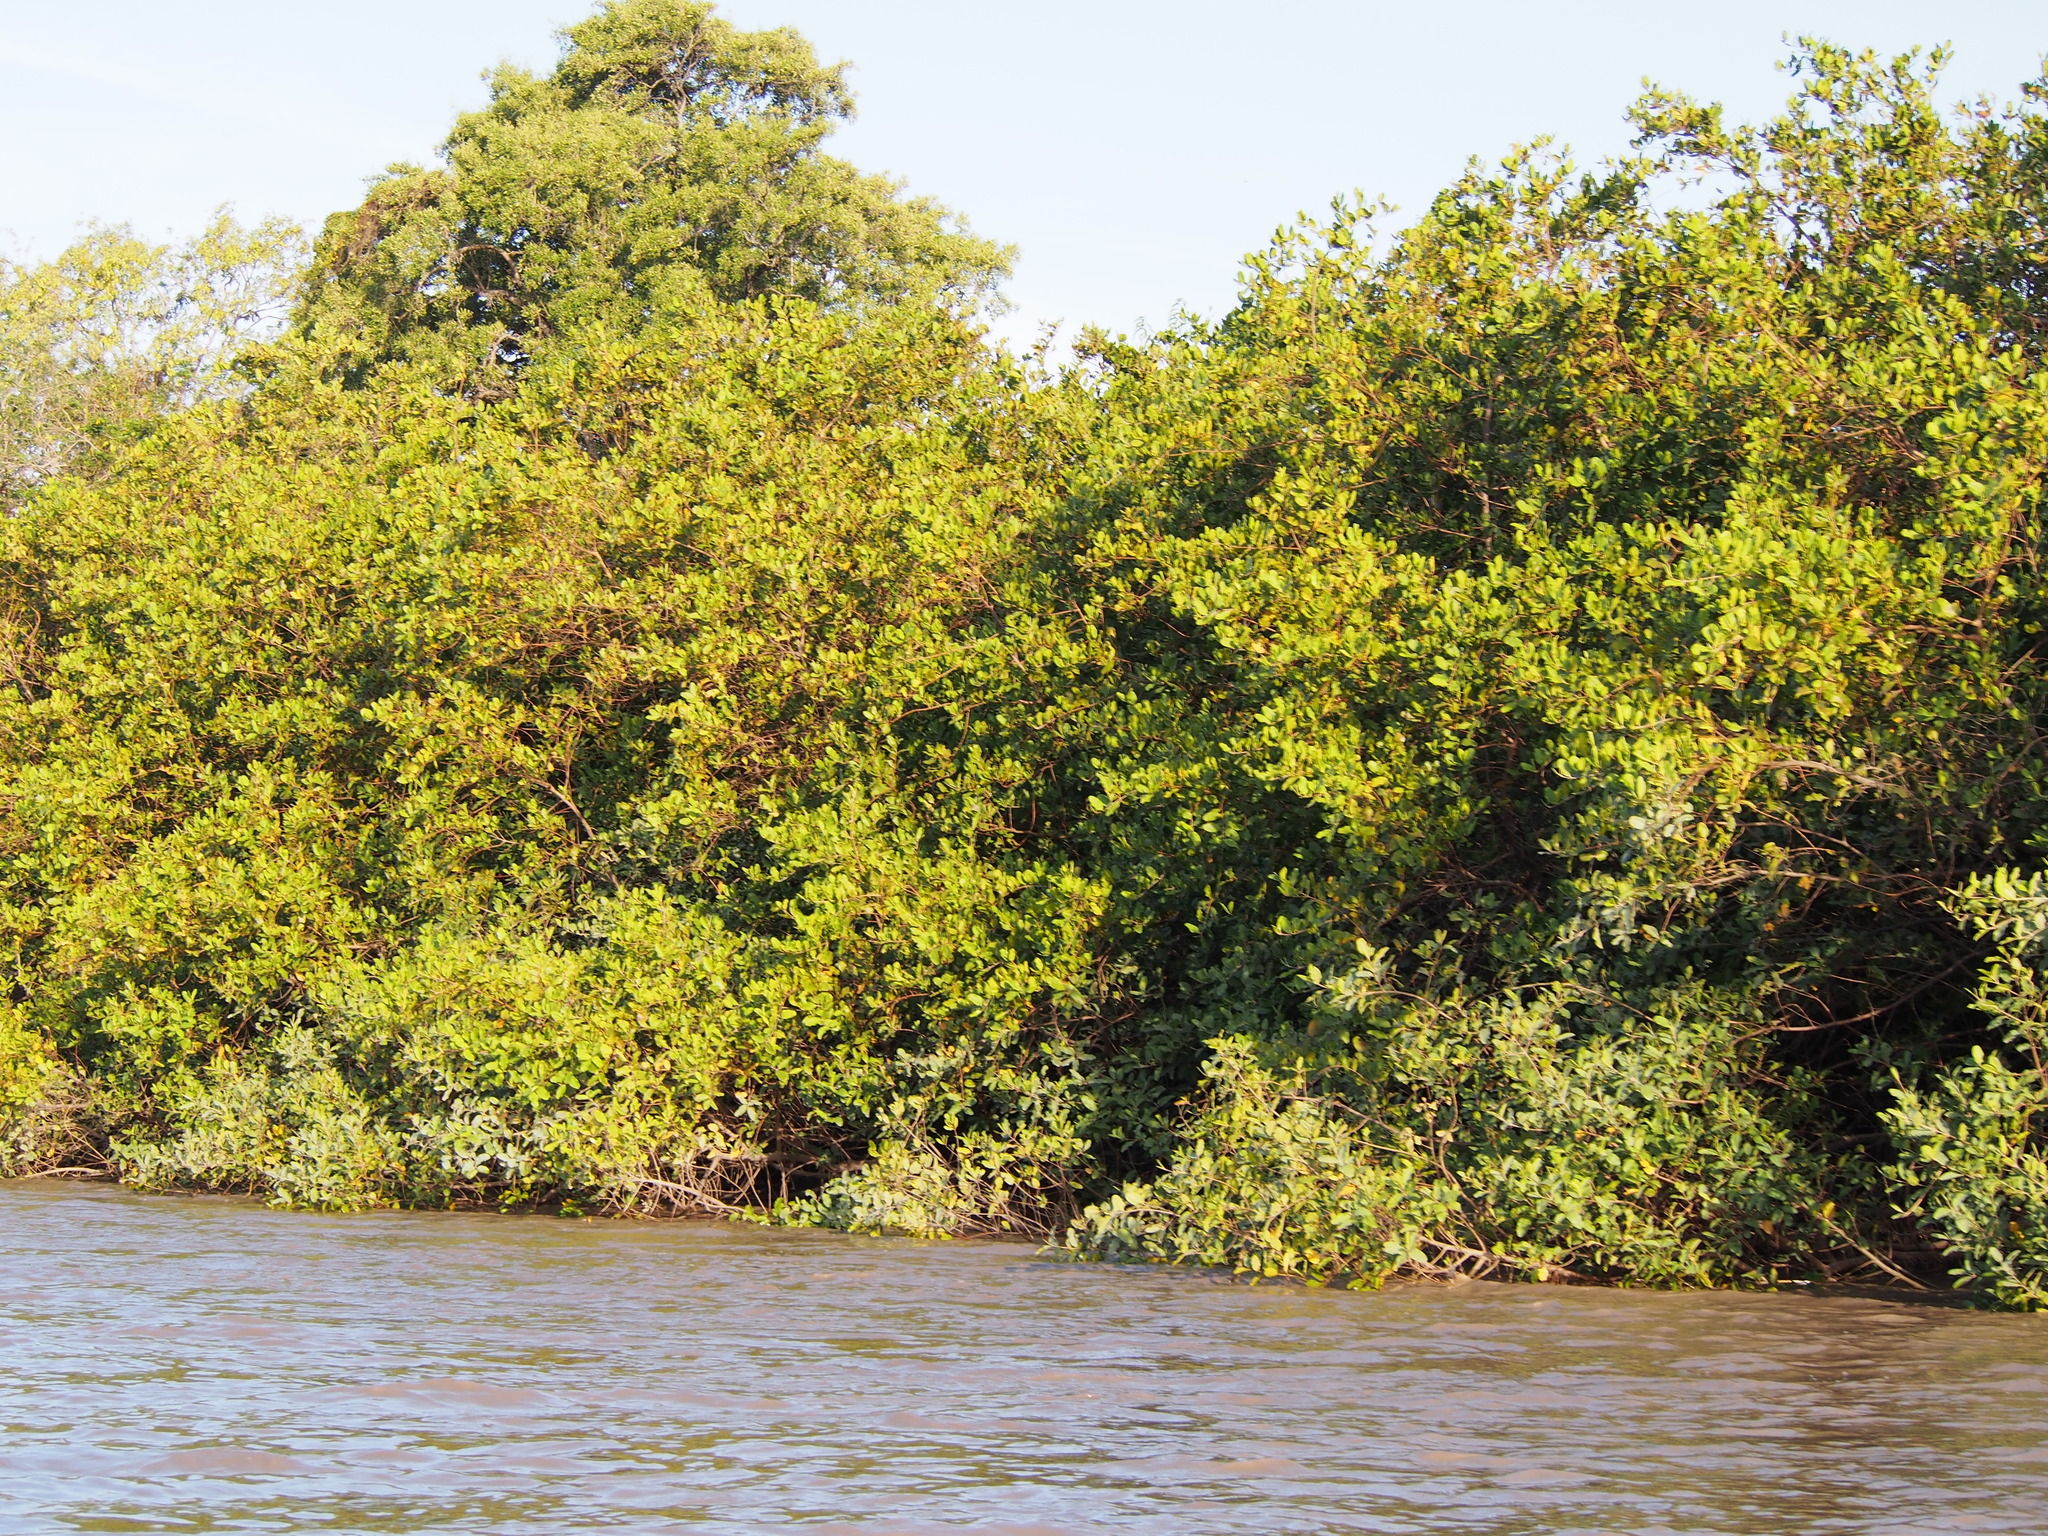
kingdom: Plantae
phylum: Tracheophyta
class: Magnoliopsida
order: Malpighiales
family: Rhizophoraceae
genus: Rhizophora
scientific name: Rhizophora mangle
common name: Red mangrove
